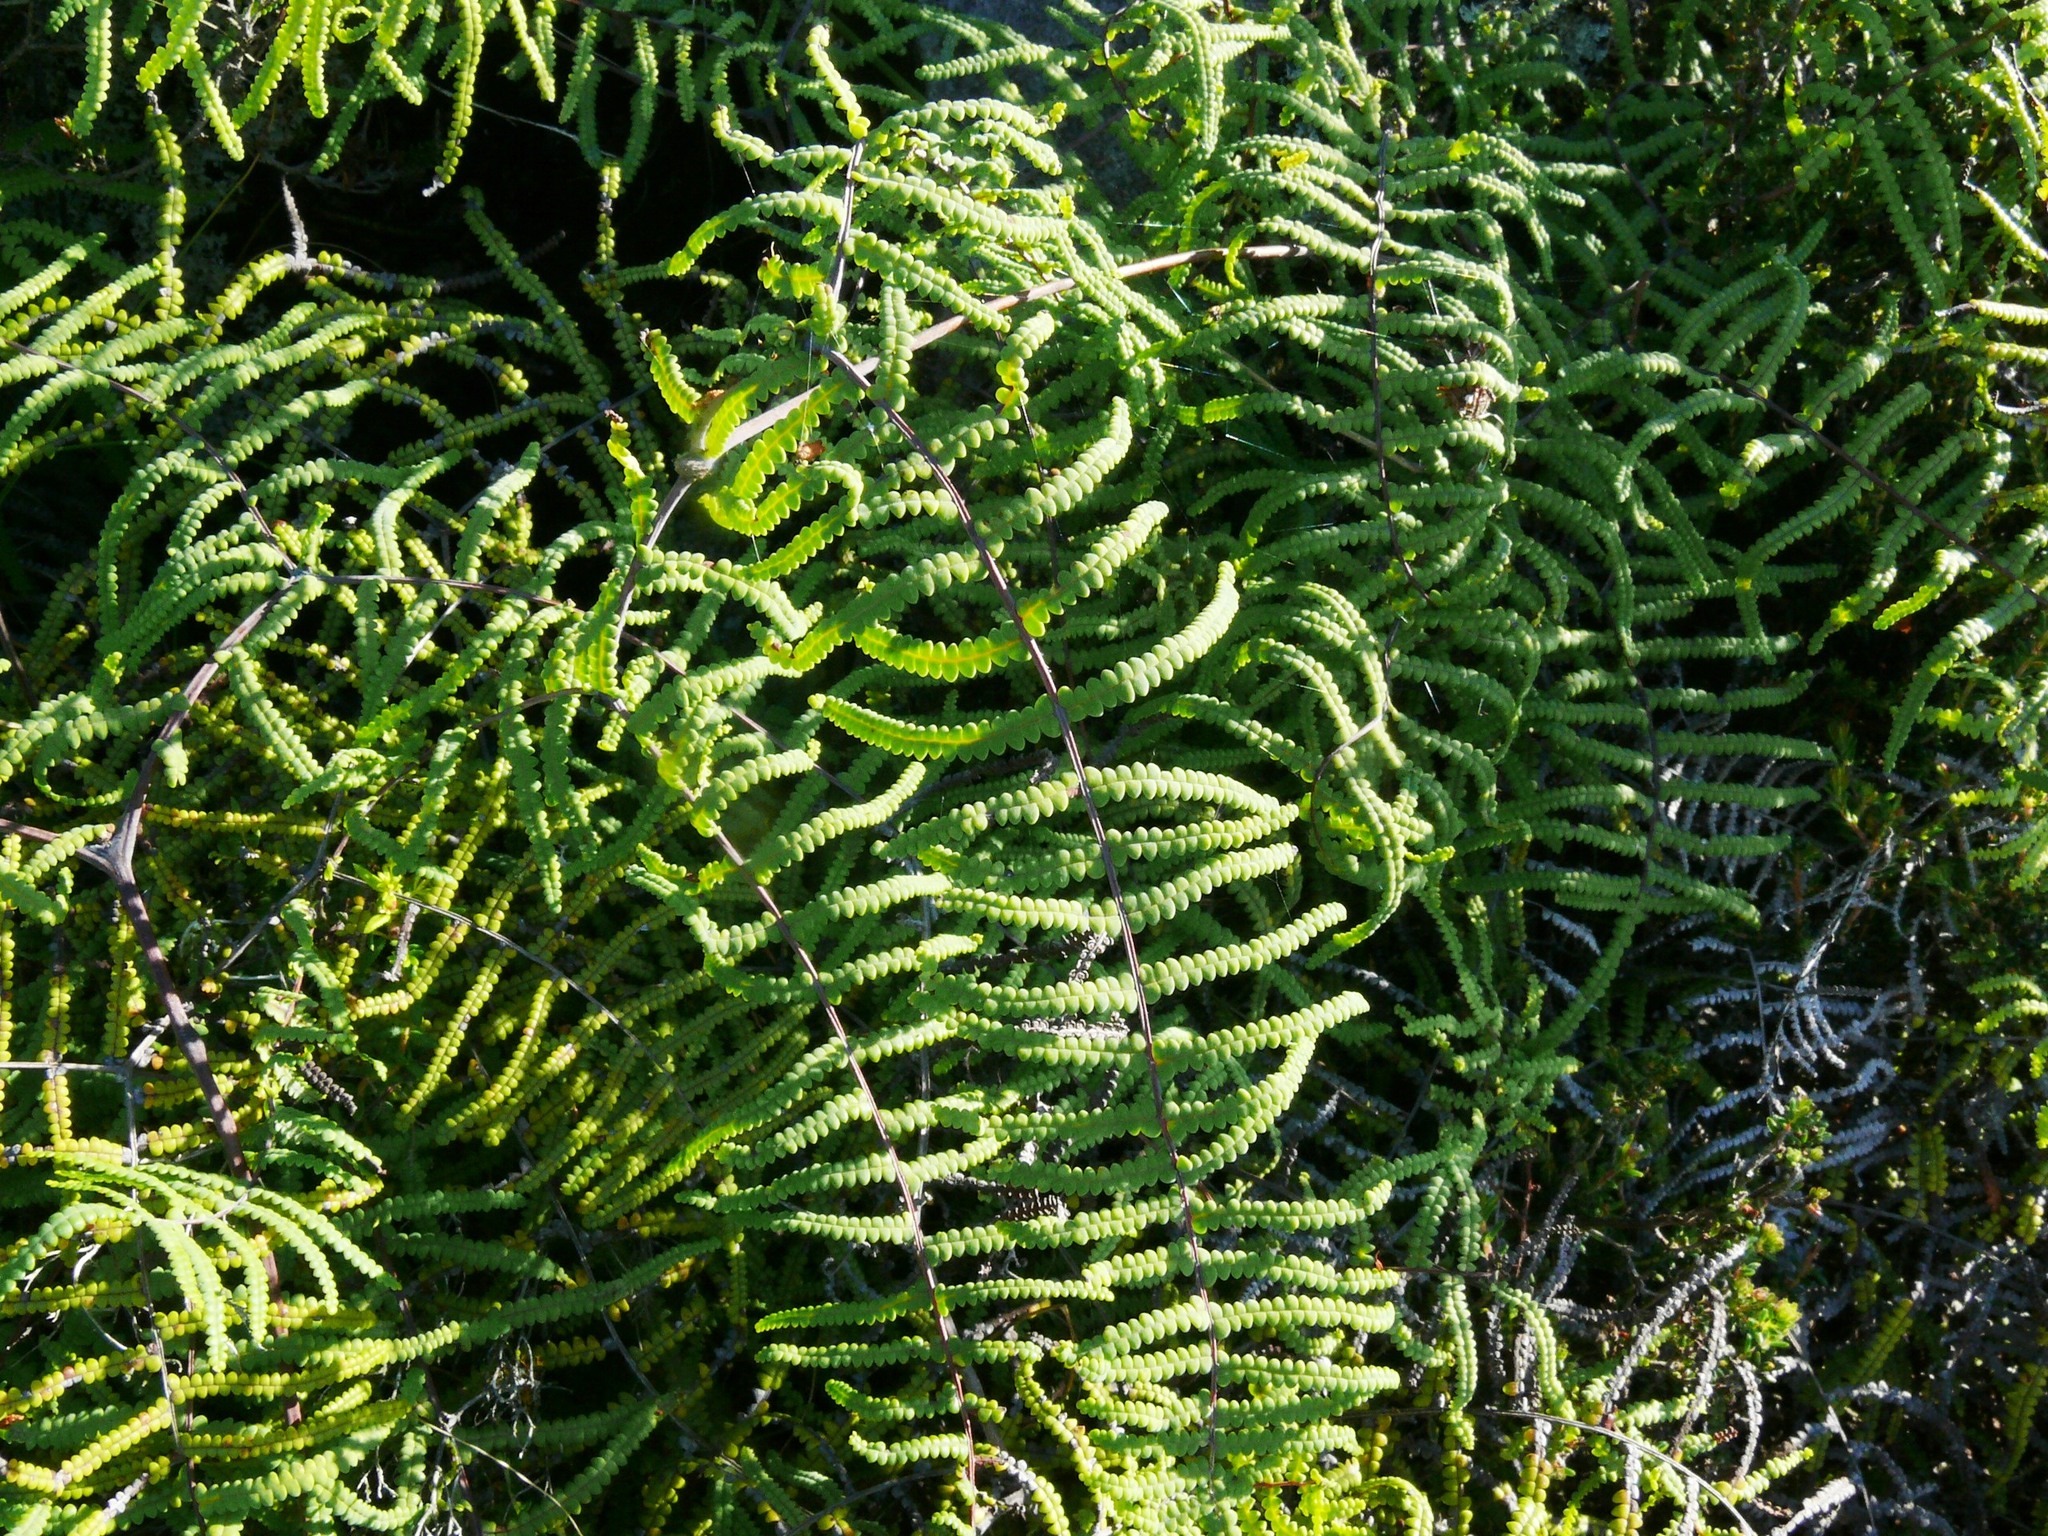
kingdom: Plantae
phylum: Tracheophyta
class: Polypodiopsida
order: Gleicheniales
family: Gleicheniaceae
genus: Gleichenia
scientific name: Gleichenia polypodioides
